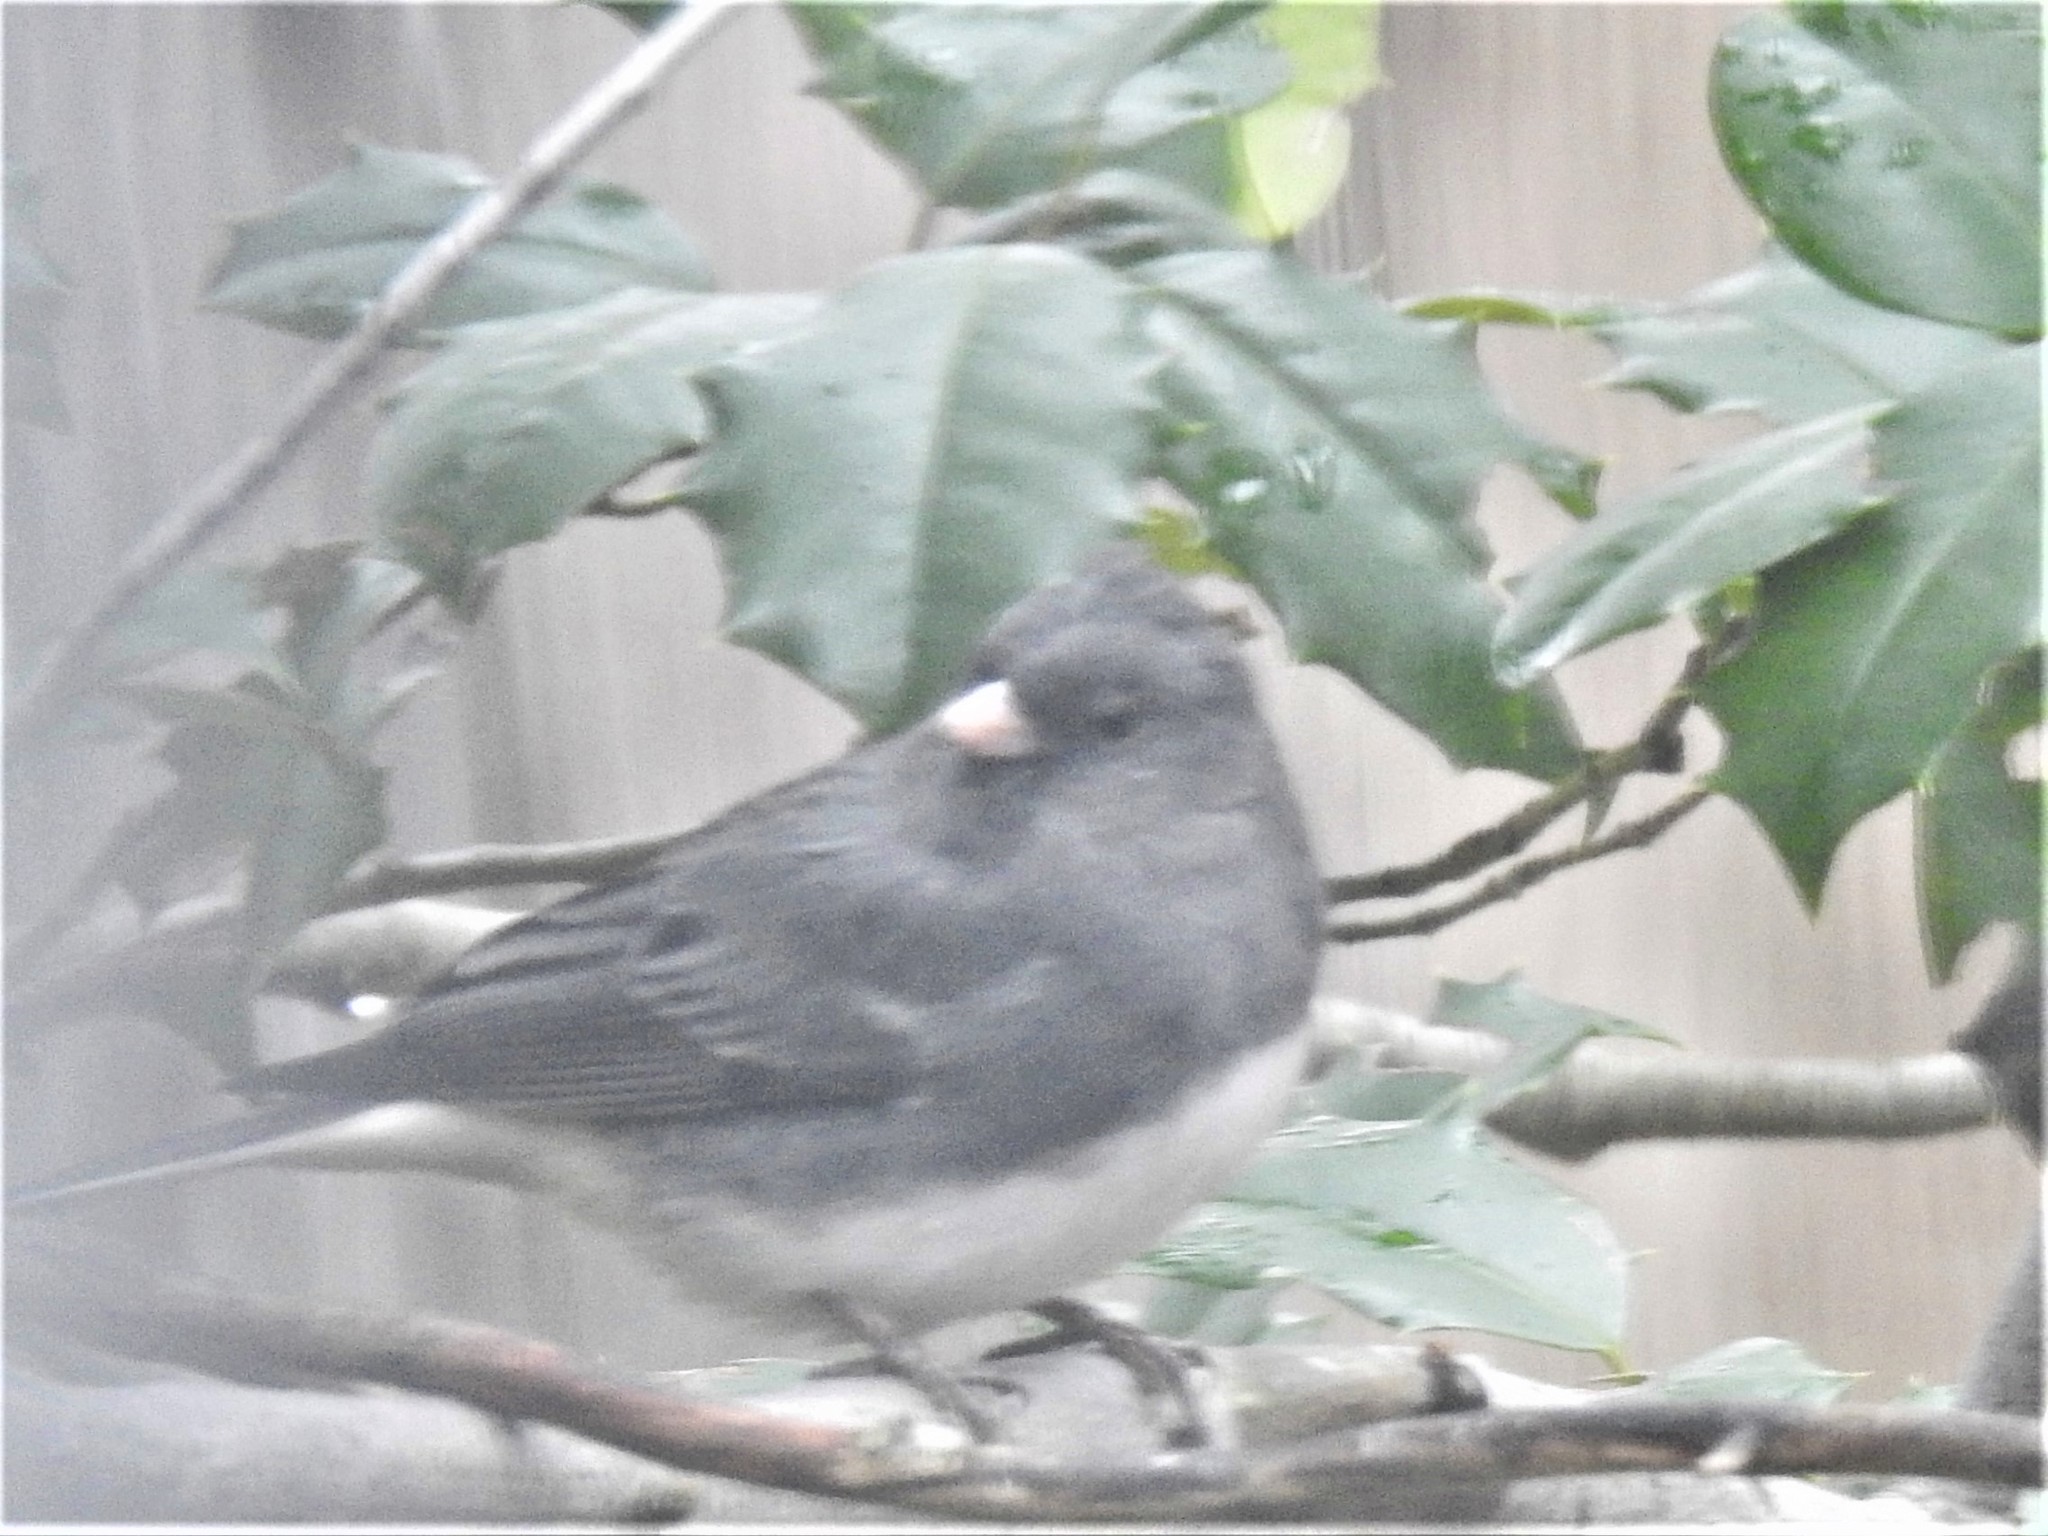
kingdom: Animalia
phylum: Chordata
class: Aves
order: Passeriformes
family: Passerellidae
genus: Junco
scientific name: Junco hyemalis
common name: Dark-eyed junco
